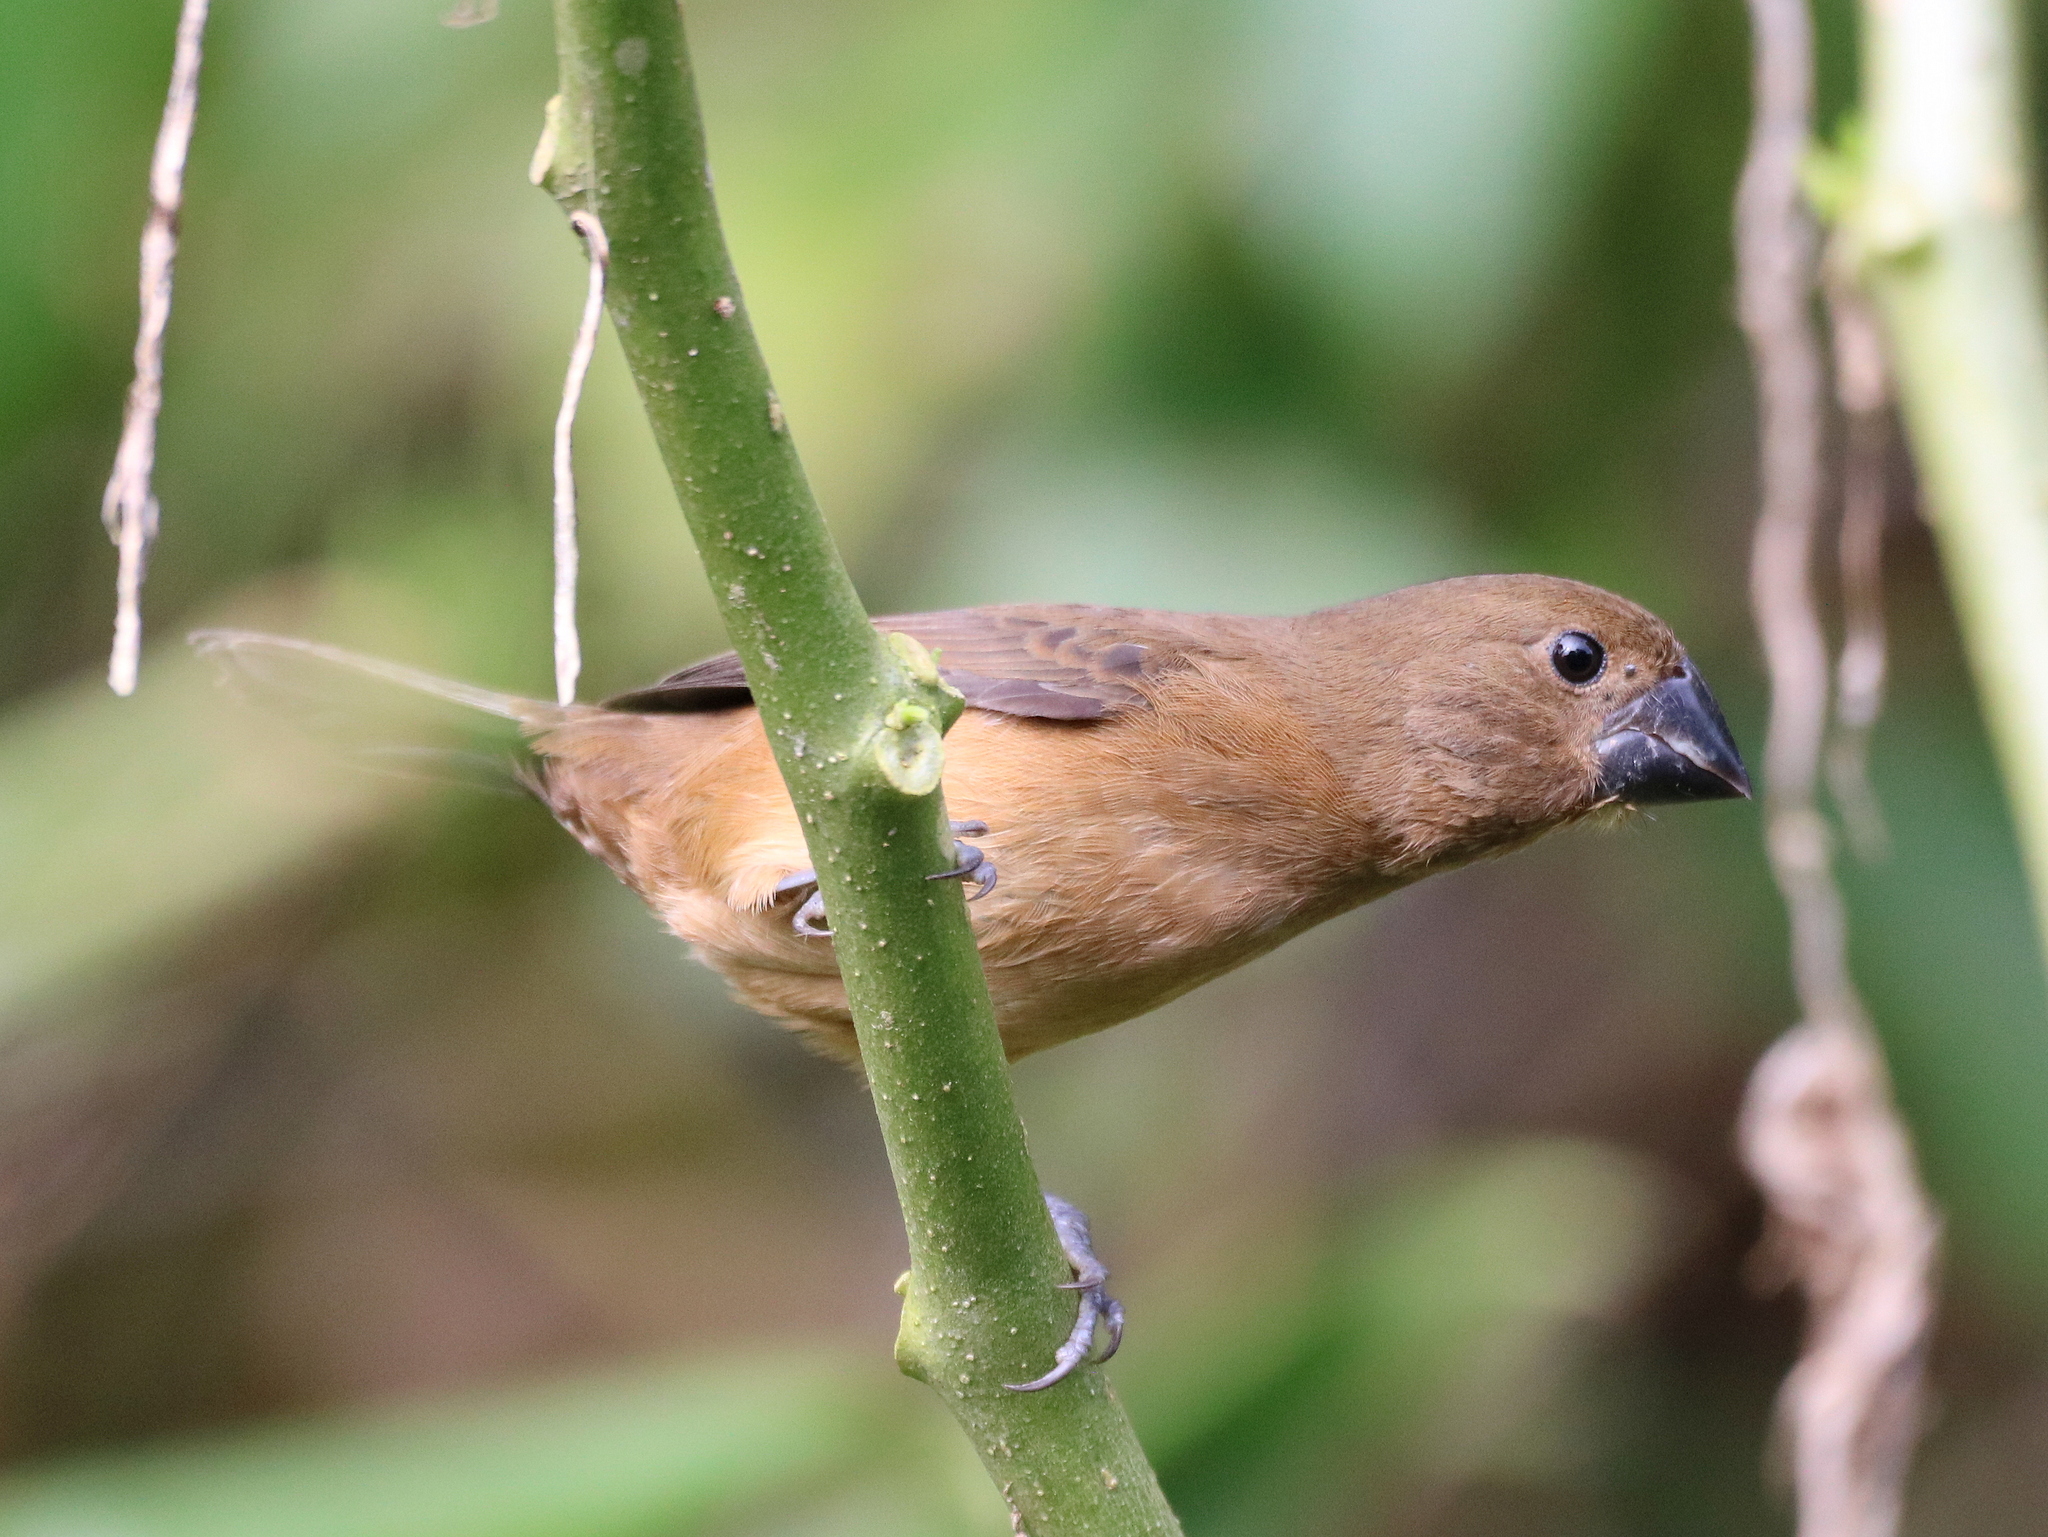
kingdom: Animalia
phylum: Chordata
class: Aves
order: Passeriformes
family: Thraupidae
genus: Sporophila
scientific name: Sporophila angolensis
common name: Chestnut-bellied seed-finch
